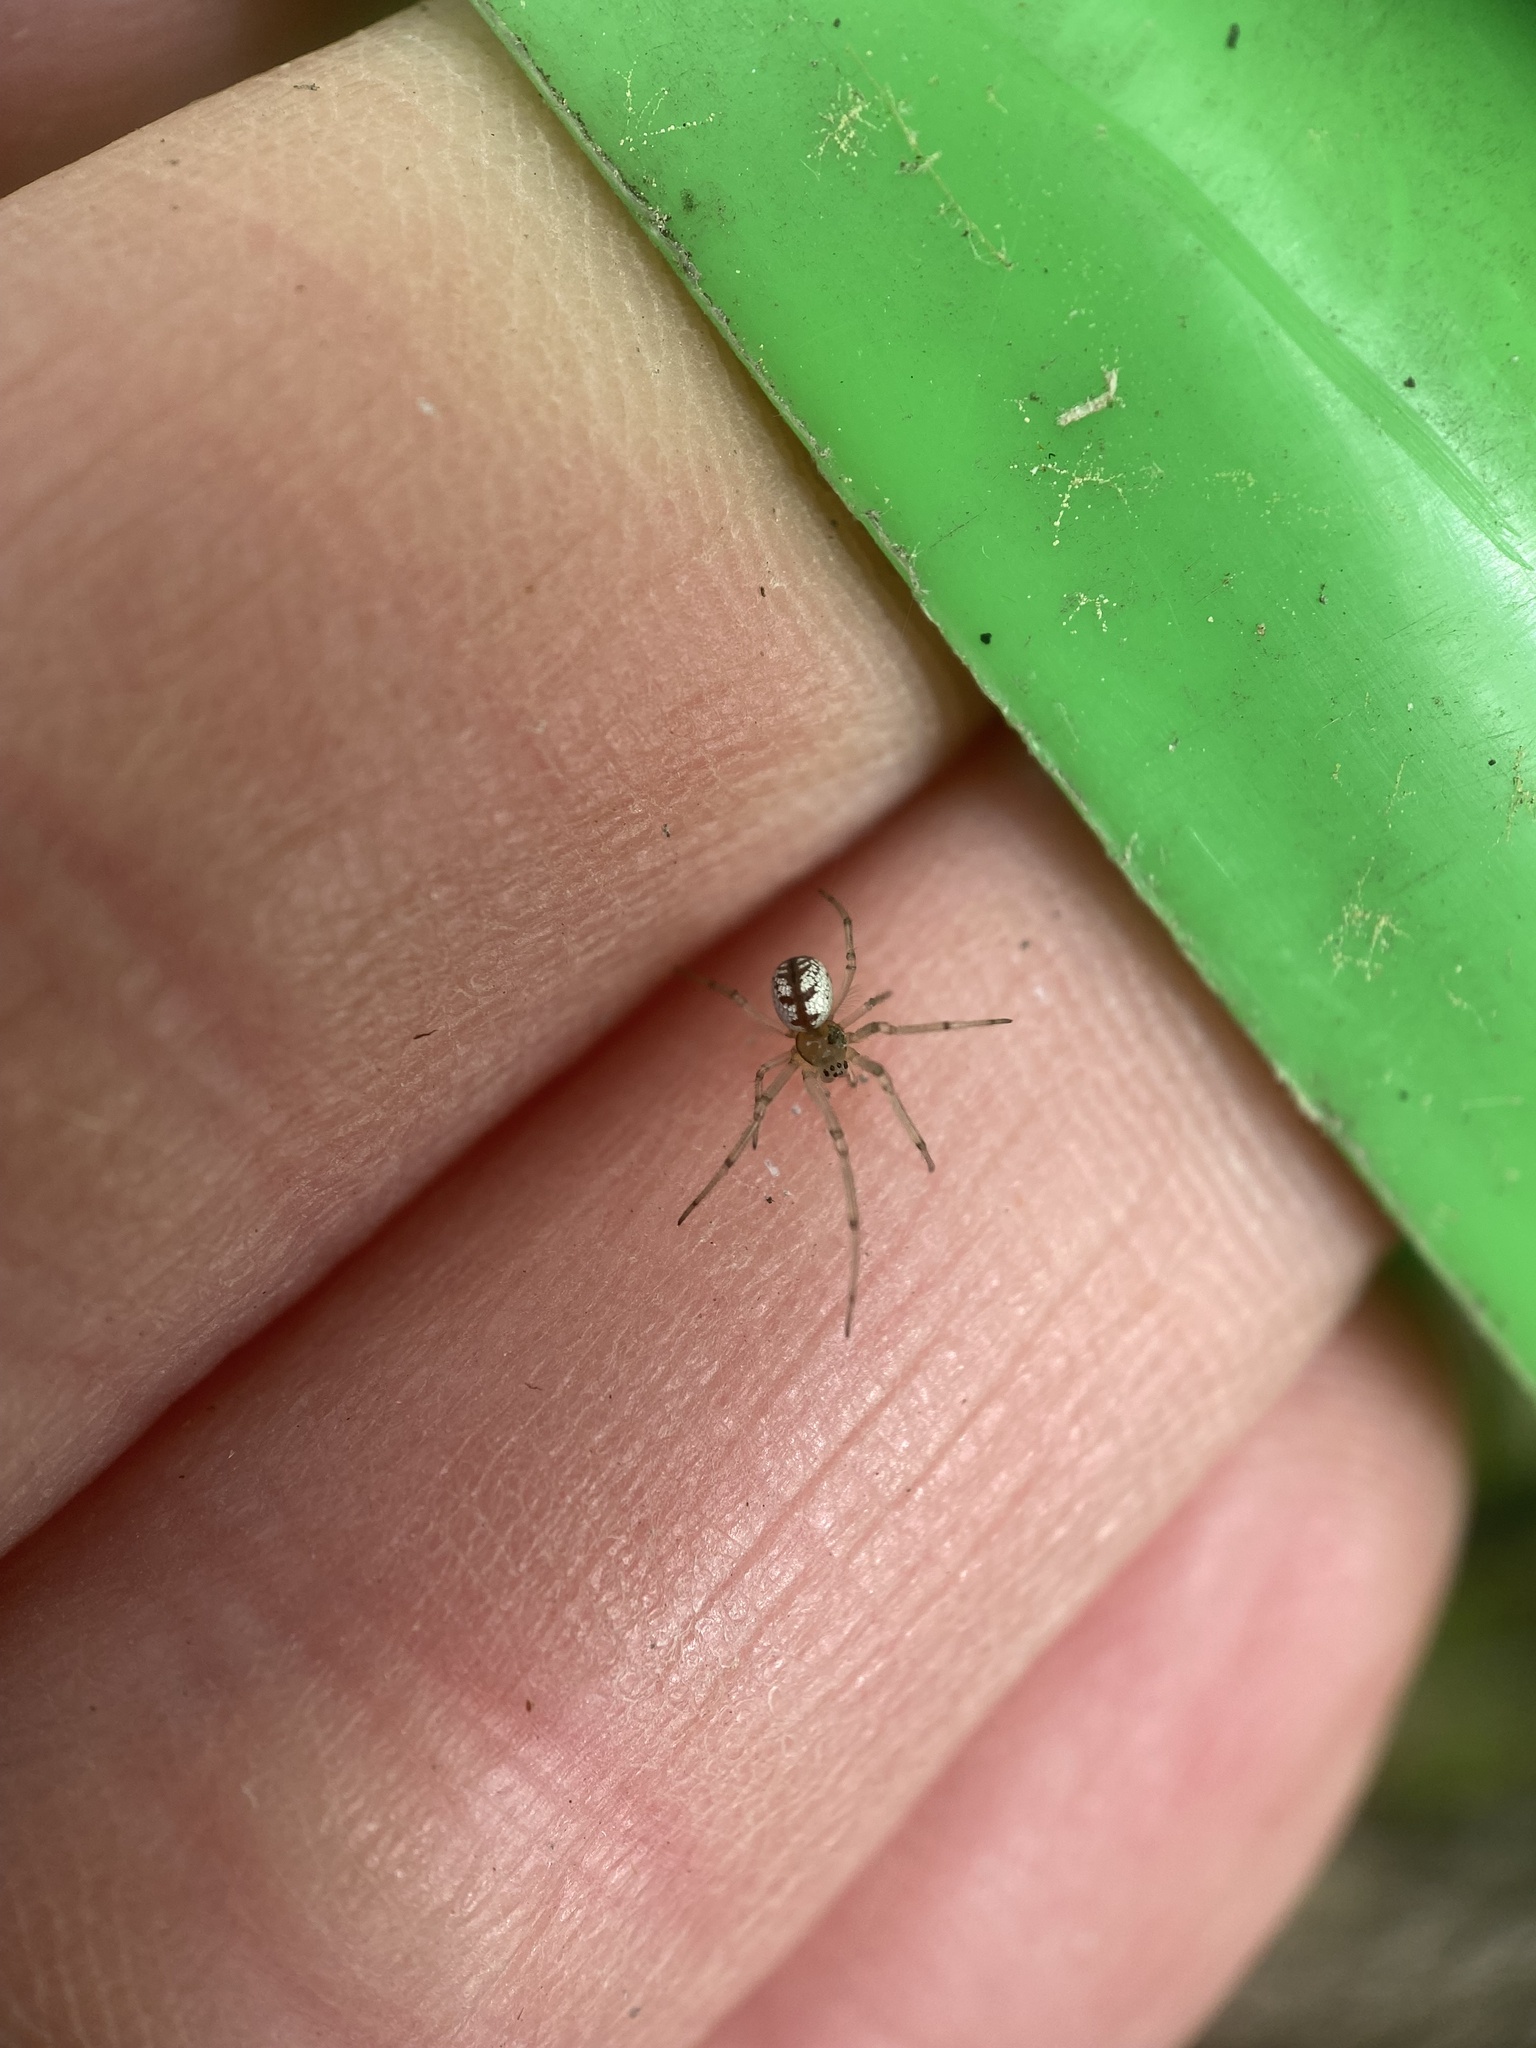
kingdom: Animalia
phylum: Arthropoda
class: Arachnida
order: Araneae
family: Tetragnathidae
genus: Leucauge
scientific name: Leucauge venusta
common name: Longjawed orb weavers
